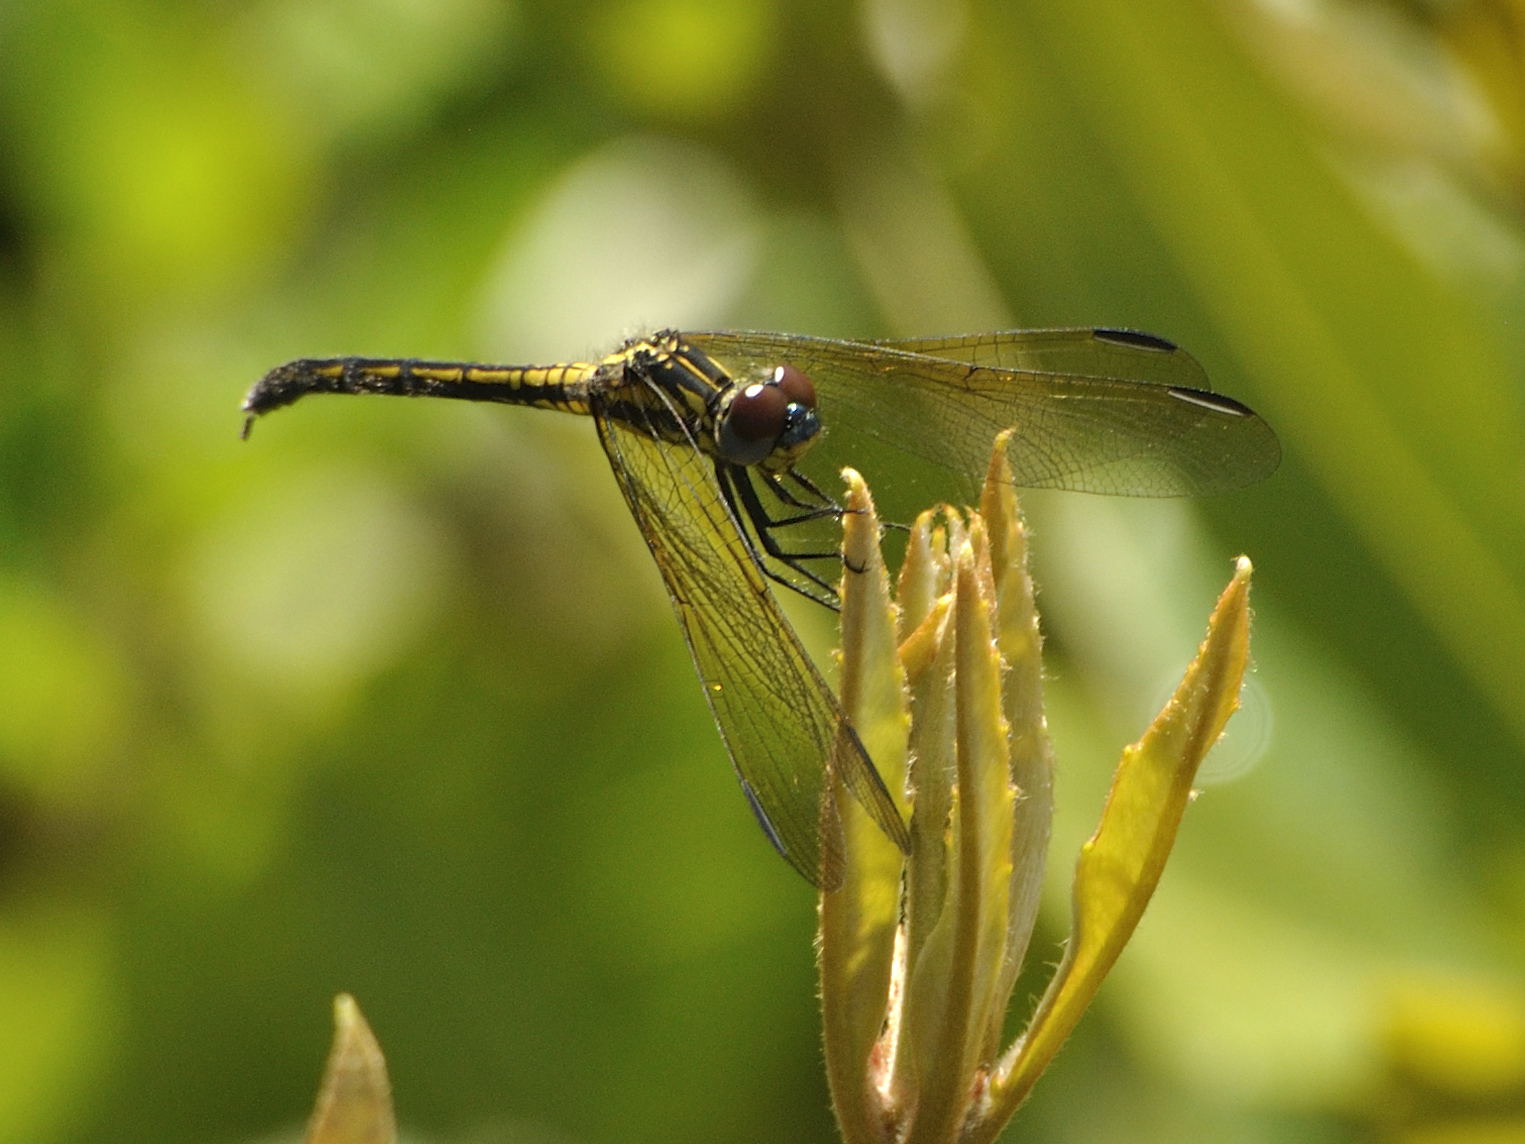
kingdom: Animalia
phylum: Arthropoda
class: Insecta
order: Odonata
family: Libellulidae
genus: Trithemis
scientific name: Trithemis stictica
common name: Jaunty dropwing
